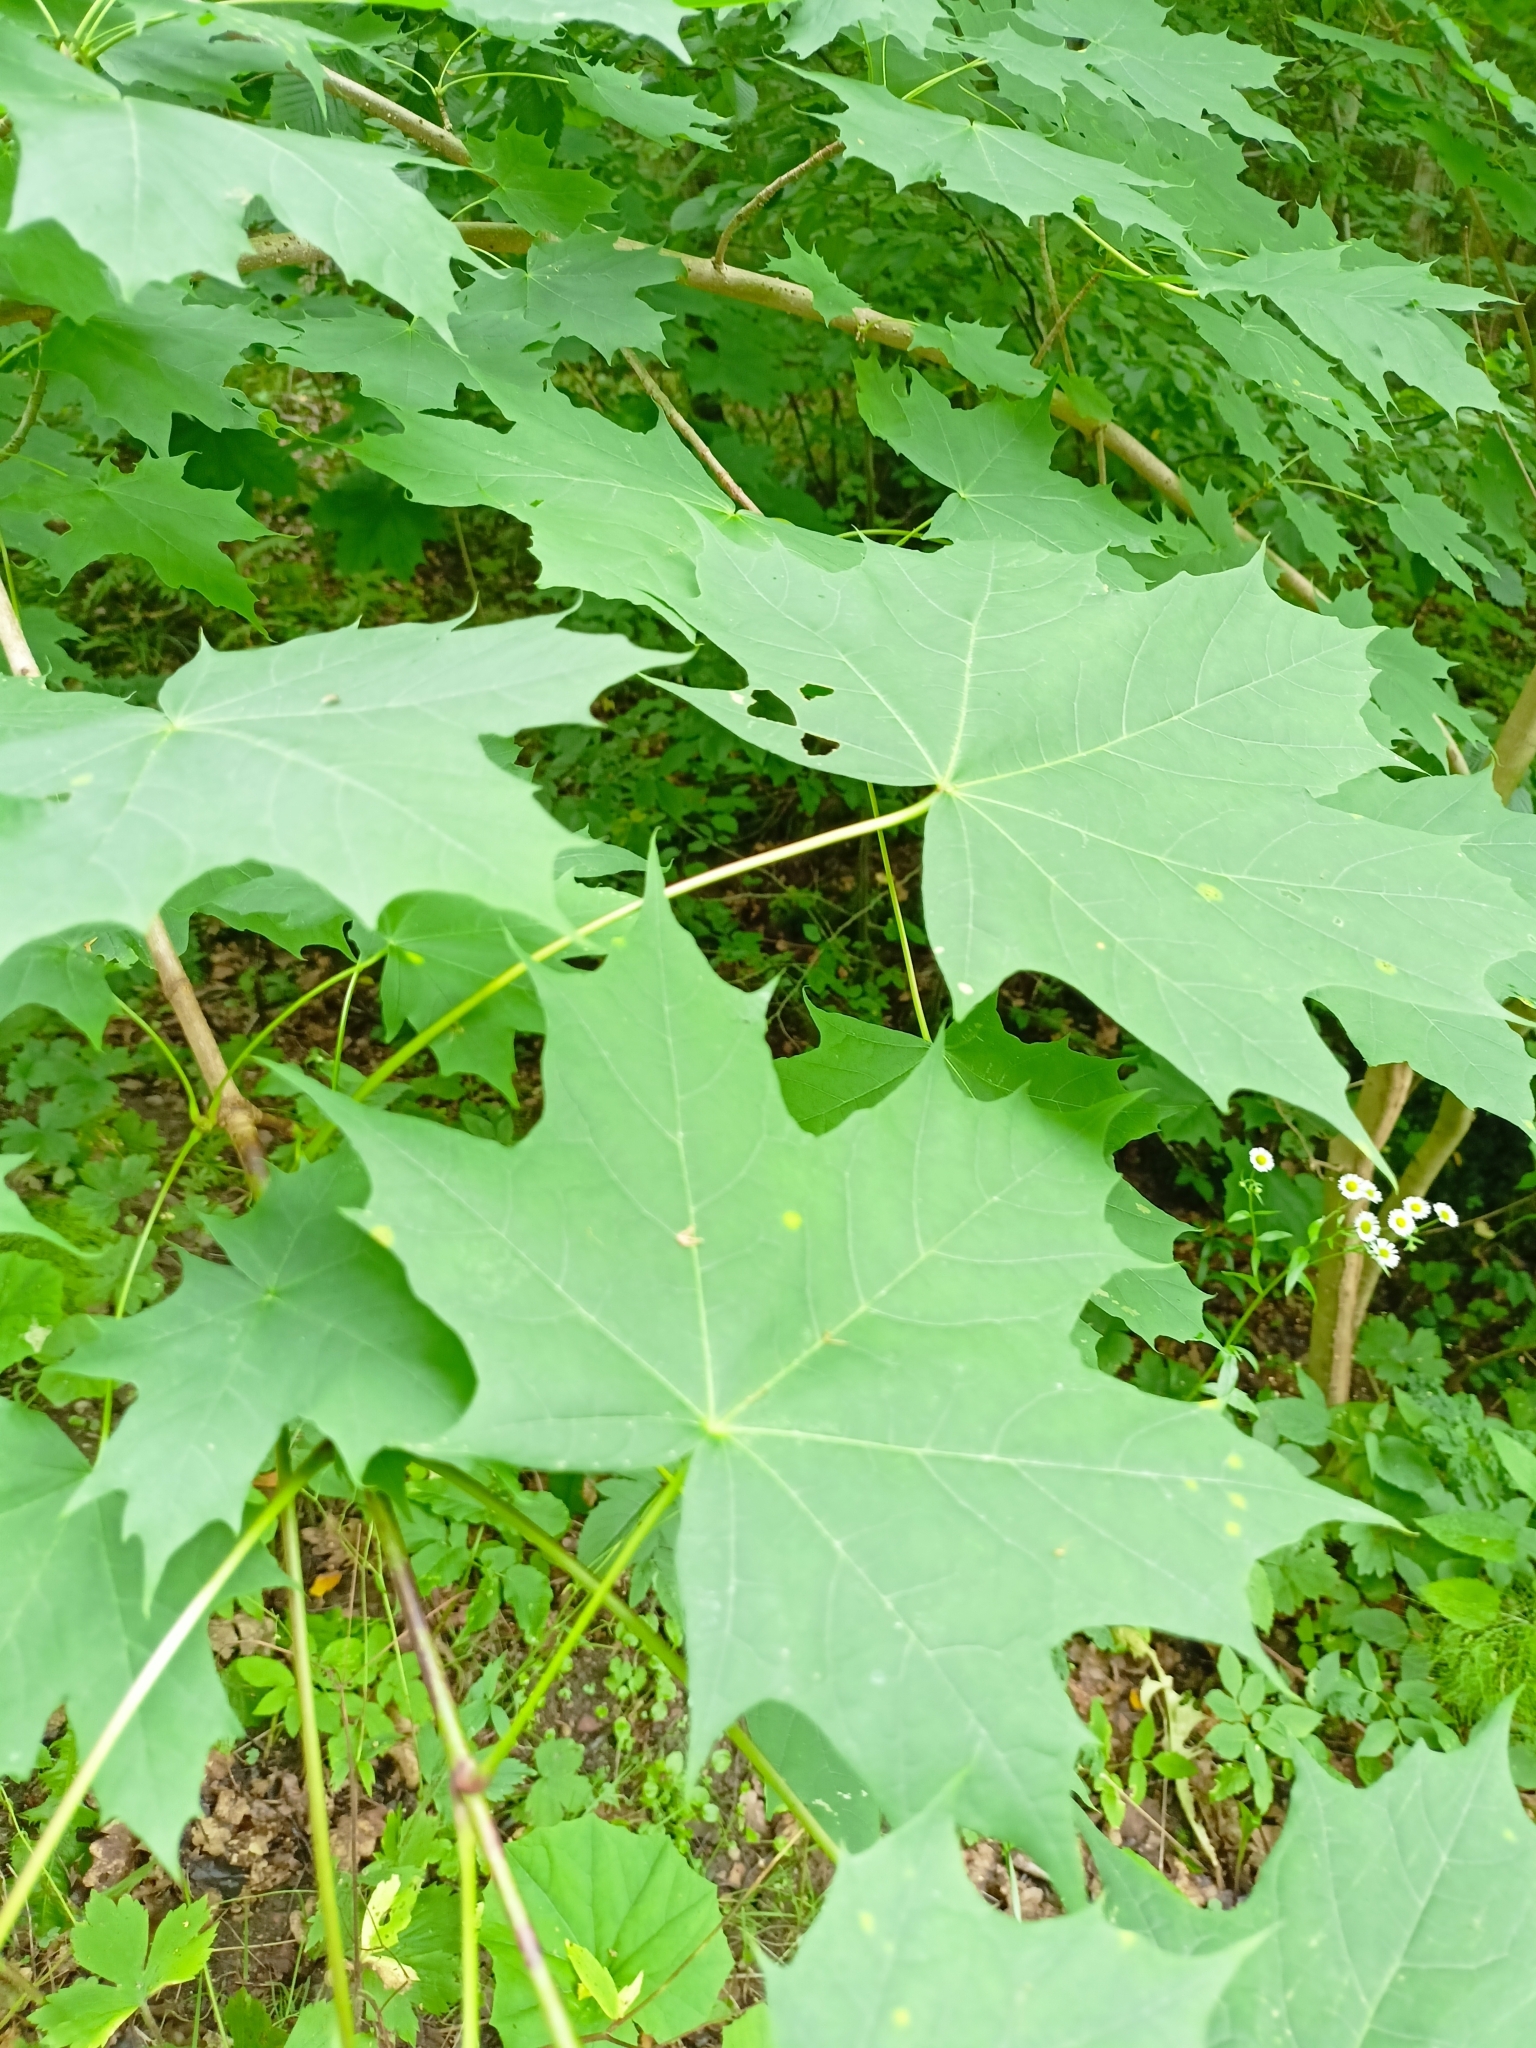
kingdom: Plantae
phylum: Tracheophyta
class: Magnoliopsida
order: Sapindales
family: Sapindaceae
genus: Acer
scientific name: Acer platanoides
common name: Norway maple
